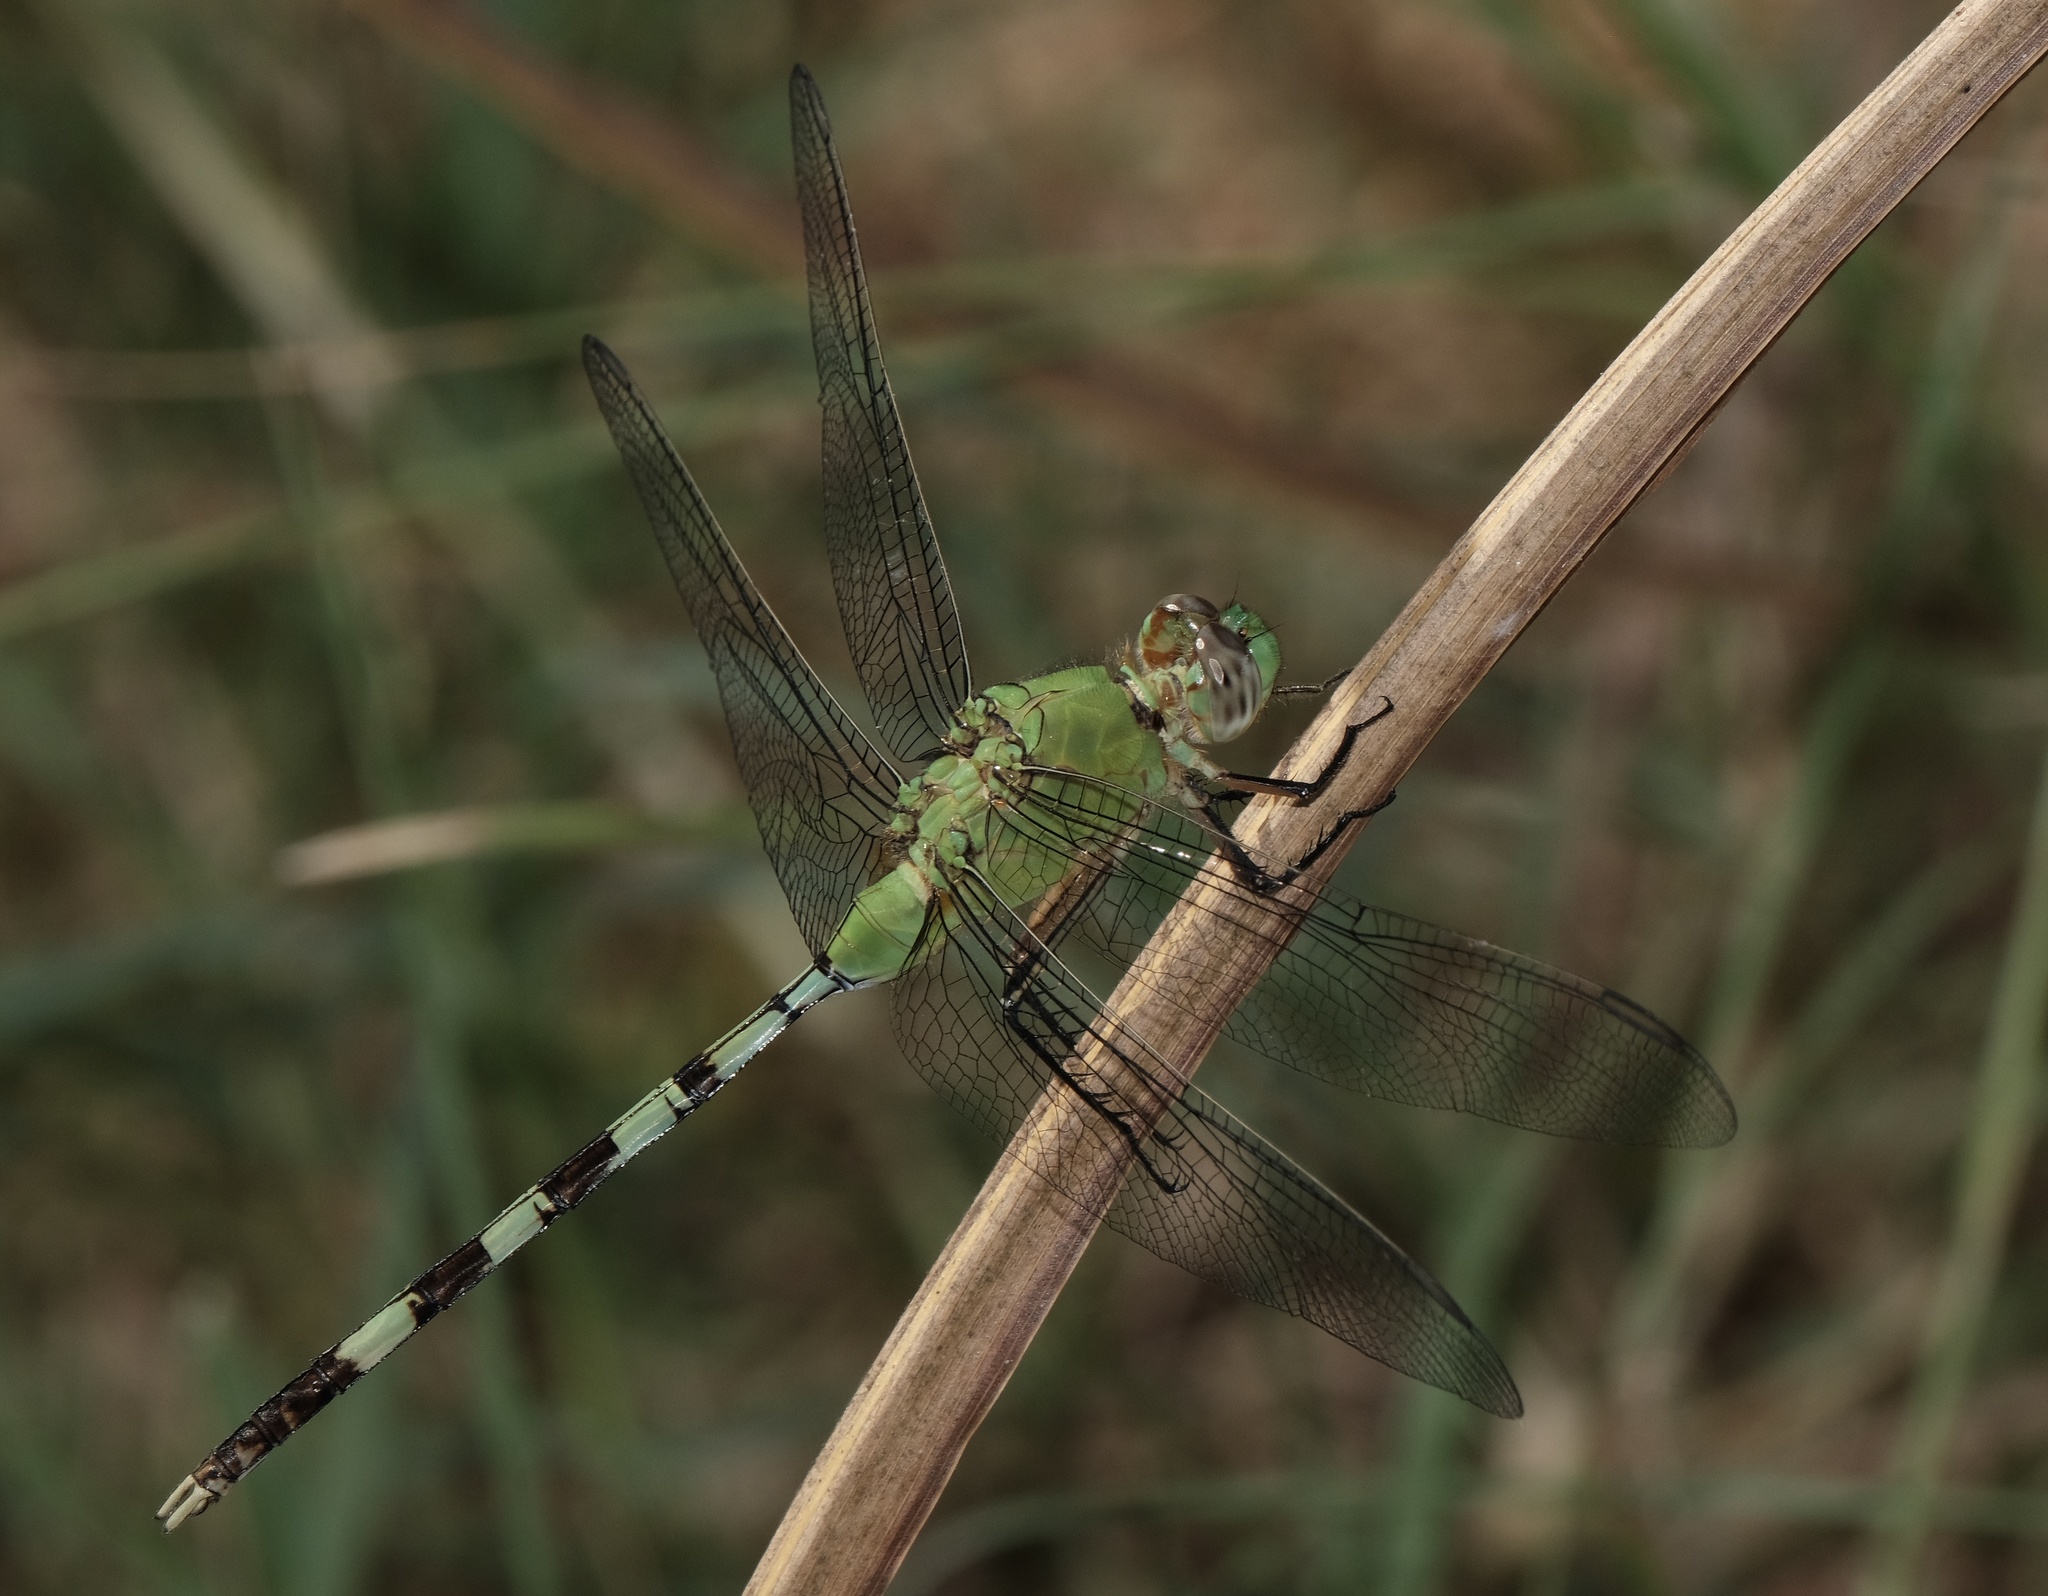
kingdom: Animalia
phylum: Arthropoda
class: Insecta
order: Odonata
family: Libellulidae
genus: Erythemis
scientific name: Erythemis vesiculosa
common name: Great pondhawk
